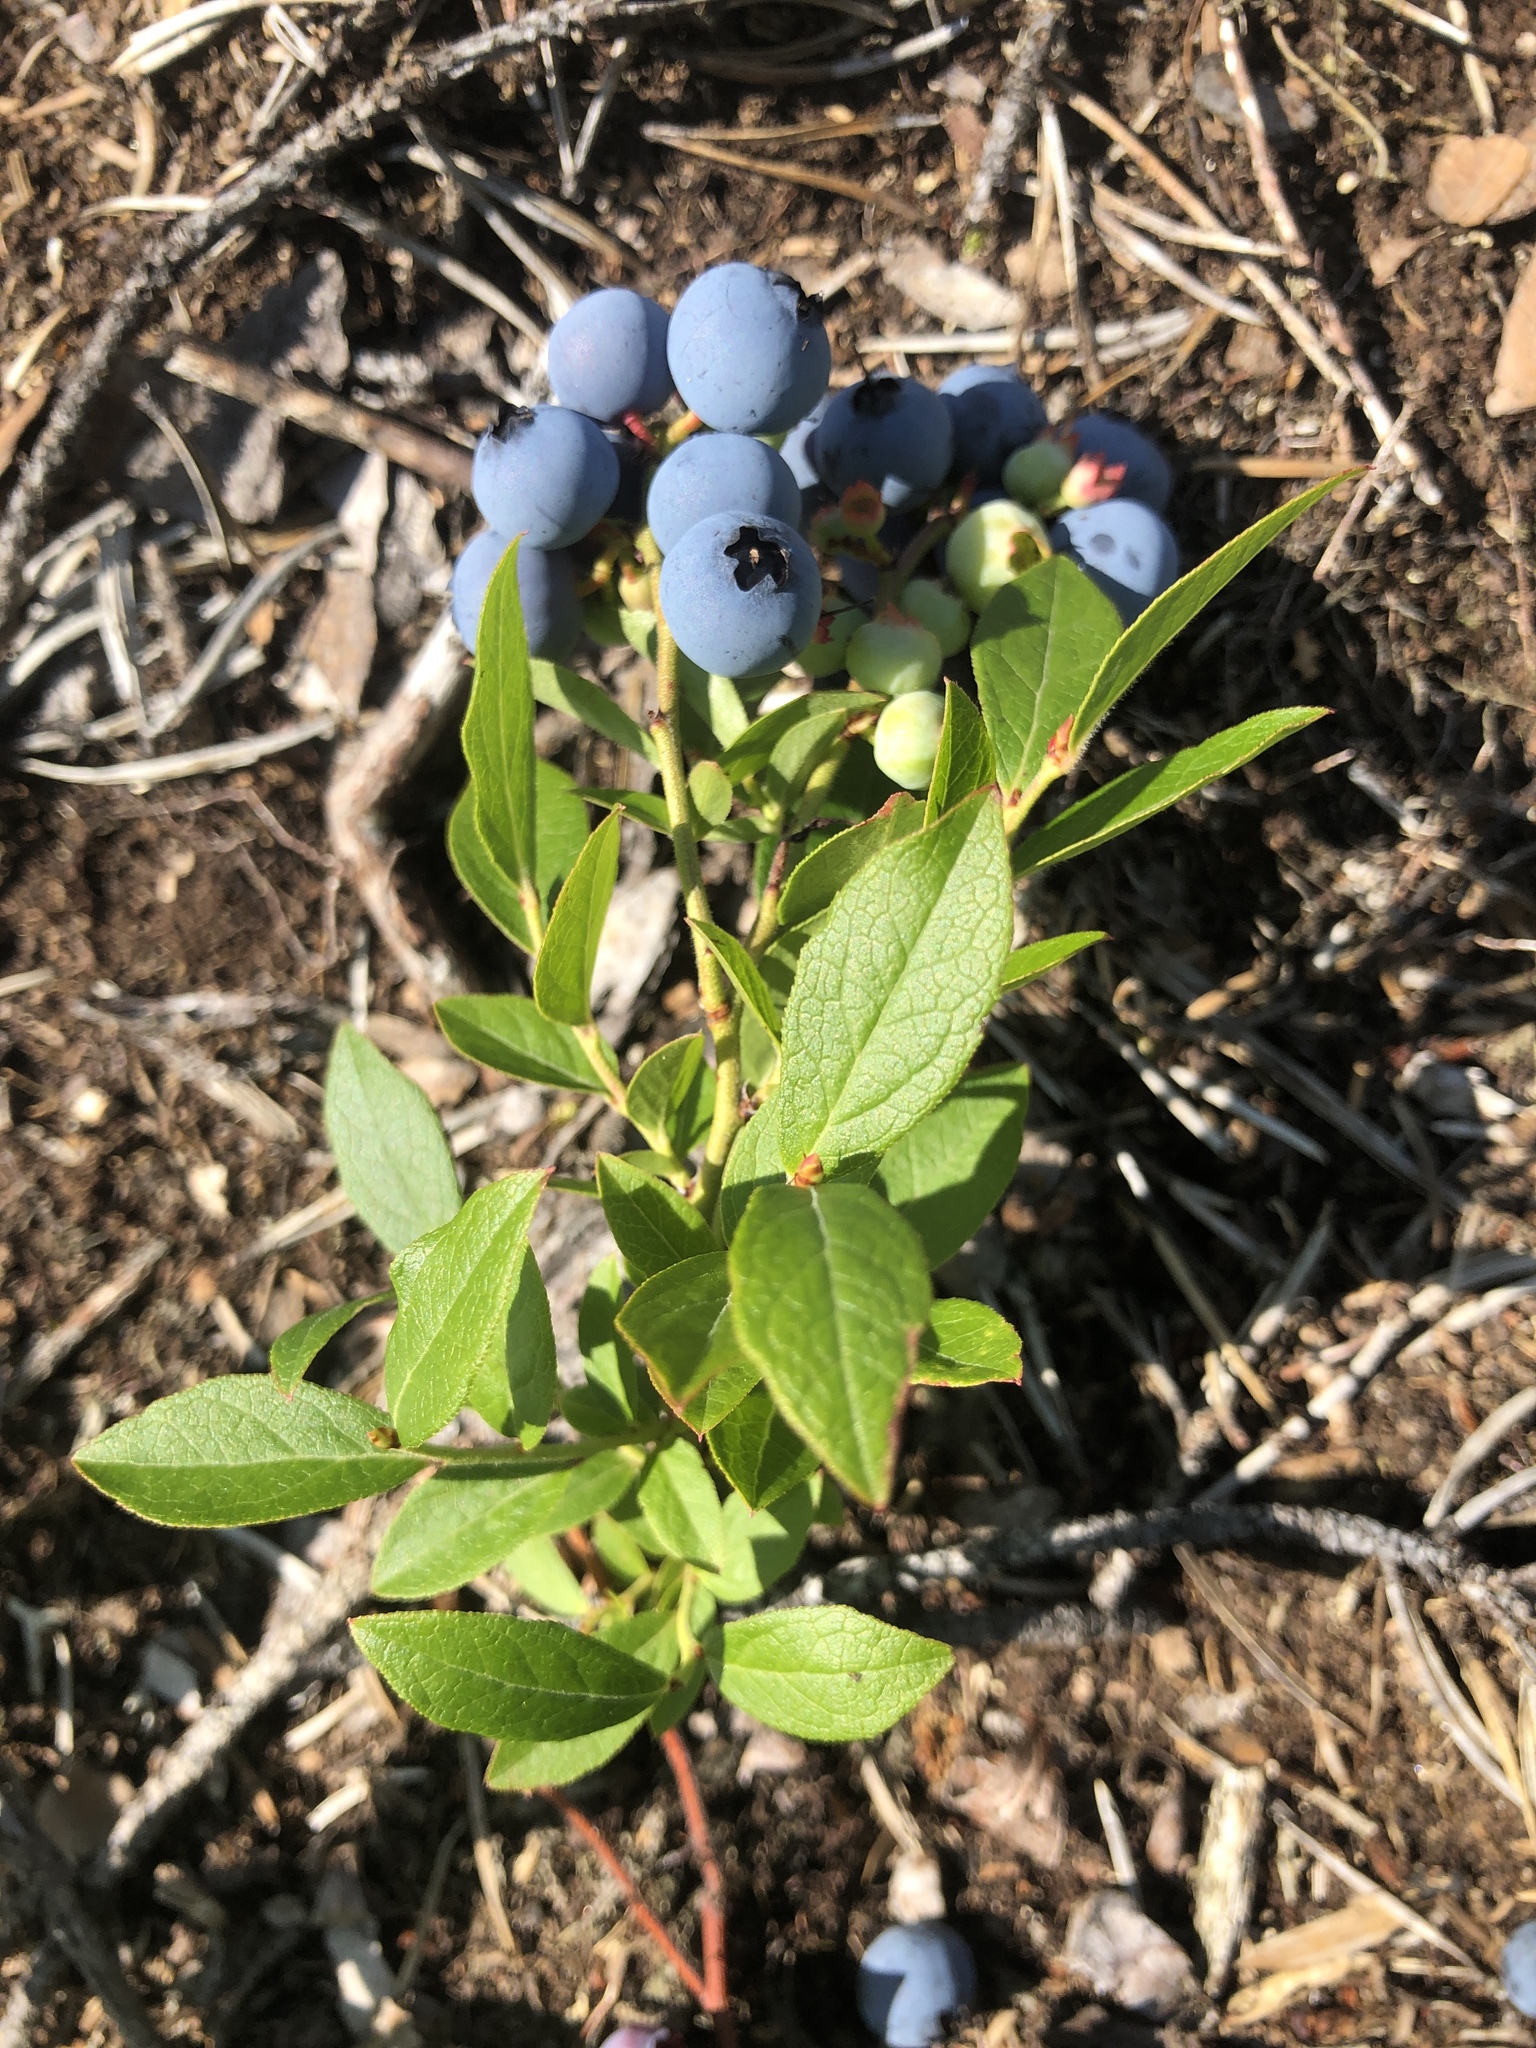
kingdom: Plantae
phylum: Tracheophyta
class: Magnoliopsida
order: Ericales
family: Ericaceae
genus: Vaccinium
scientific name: Vaccinium angustifolium
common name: Early lowbush blueberry
